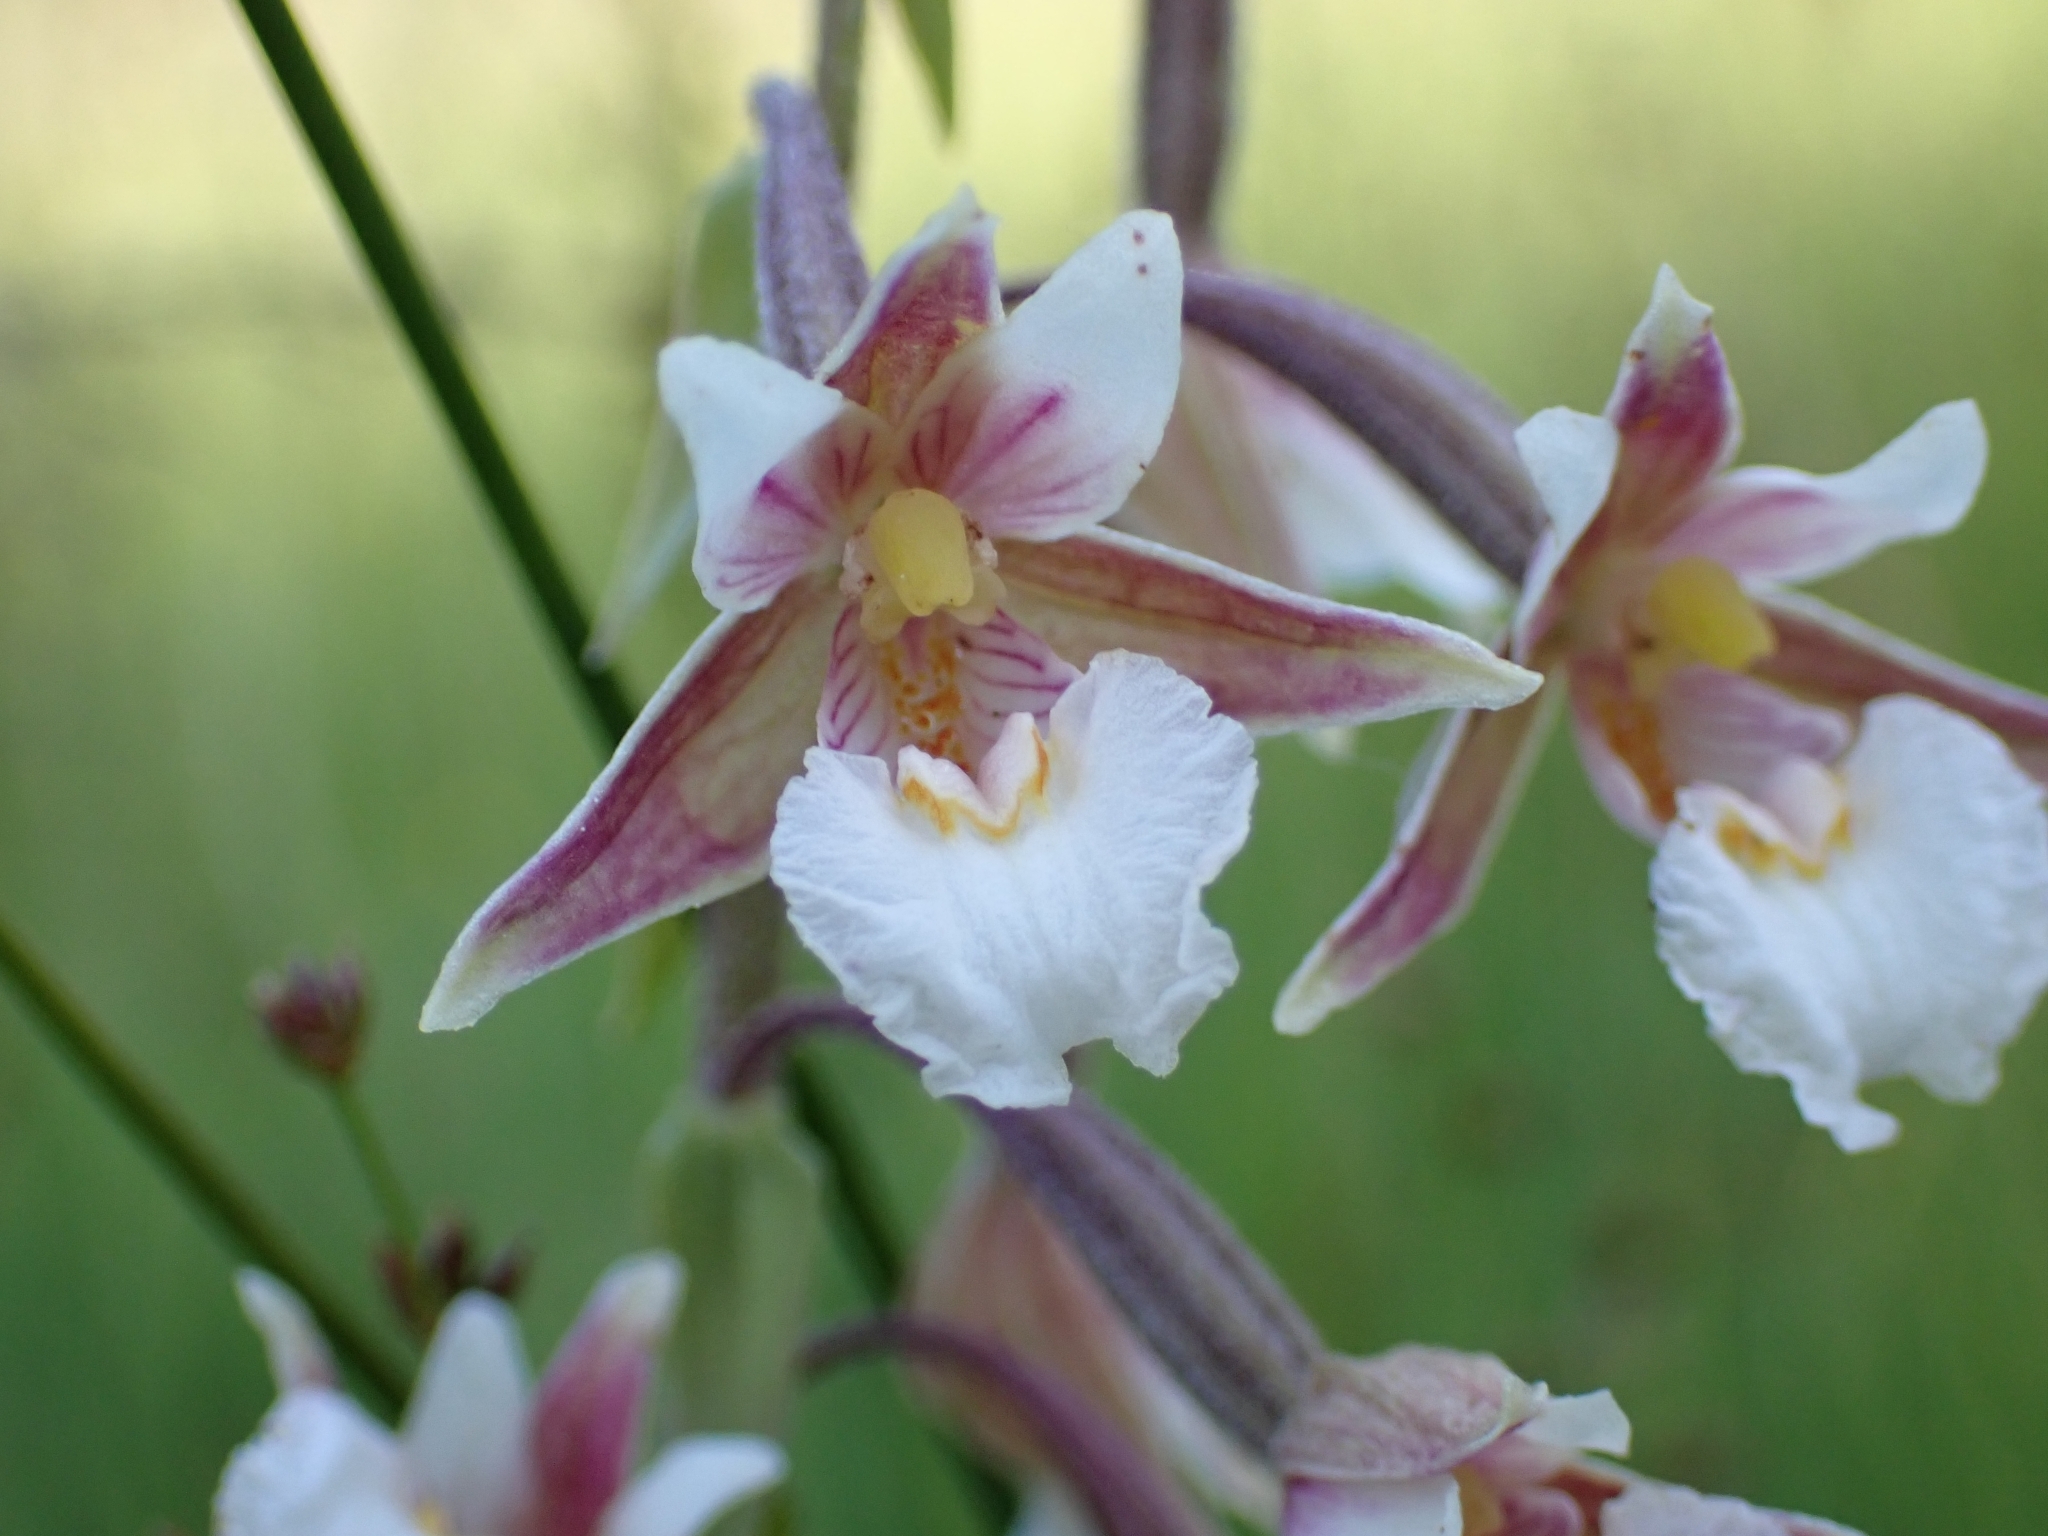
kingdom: Plantae
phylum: Tracheophyta
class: Liliopsida
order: Asparagales
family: Orchidaceae
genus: Epipactis
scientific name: Epipactis palustris
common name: Marsh helleborine
